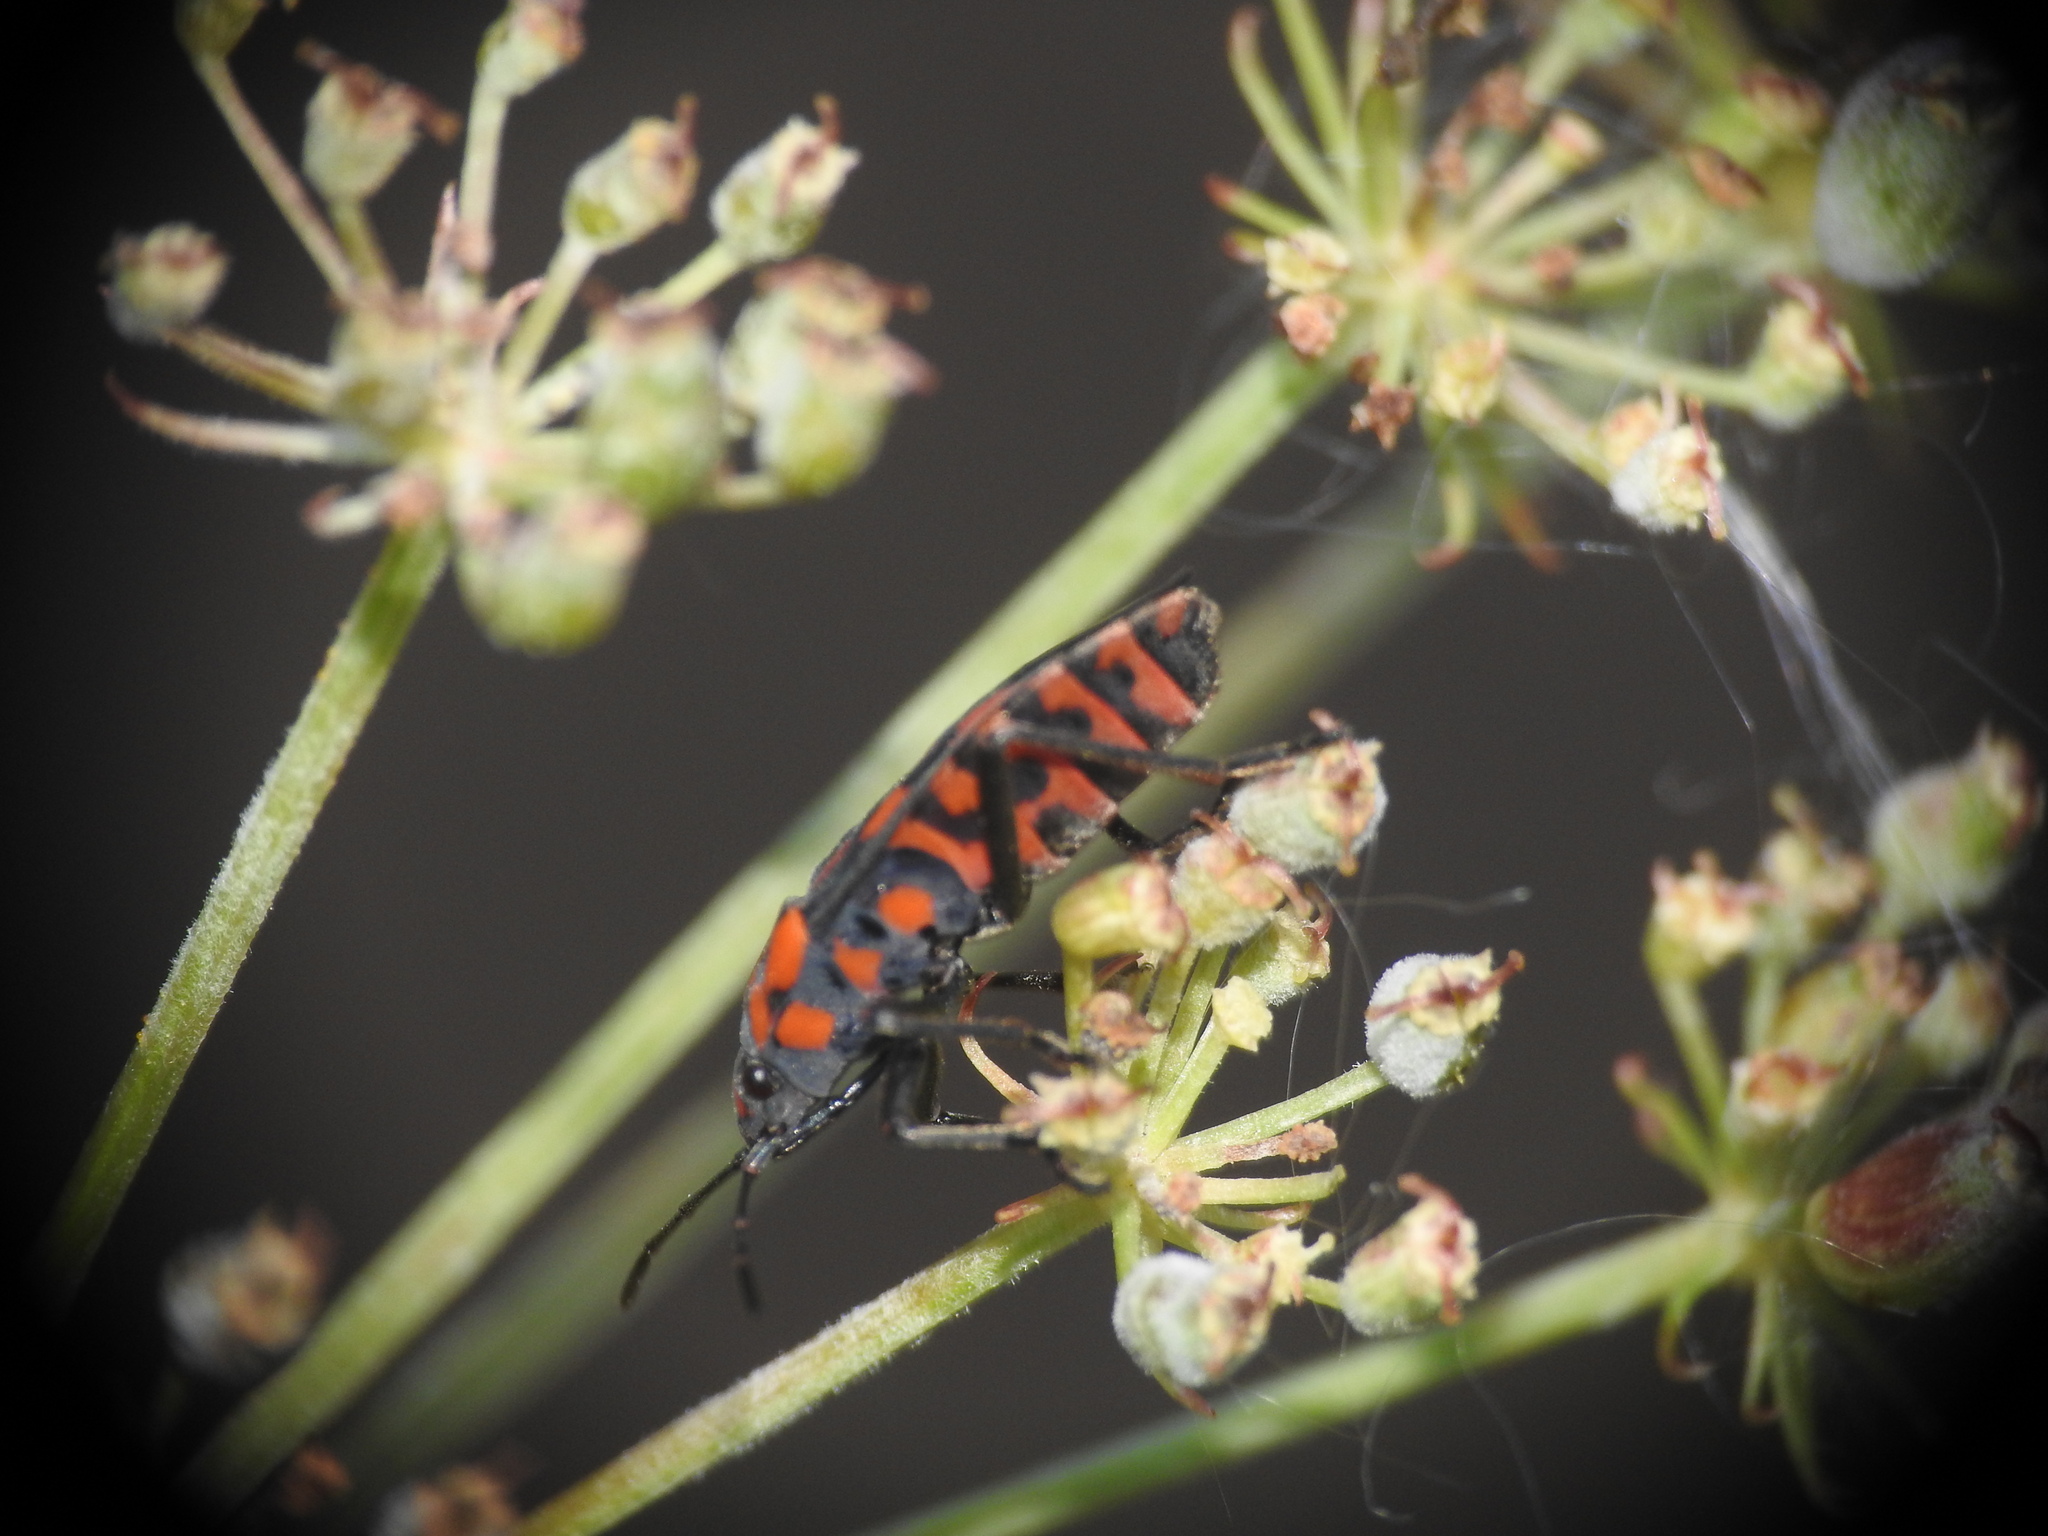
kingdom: Animalia
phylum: Arthropoda
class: Insecta
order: Hemiptera
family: Lygaeidae
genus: Spilostethus
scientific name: Spilostethus saxatilis
